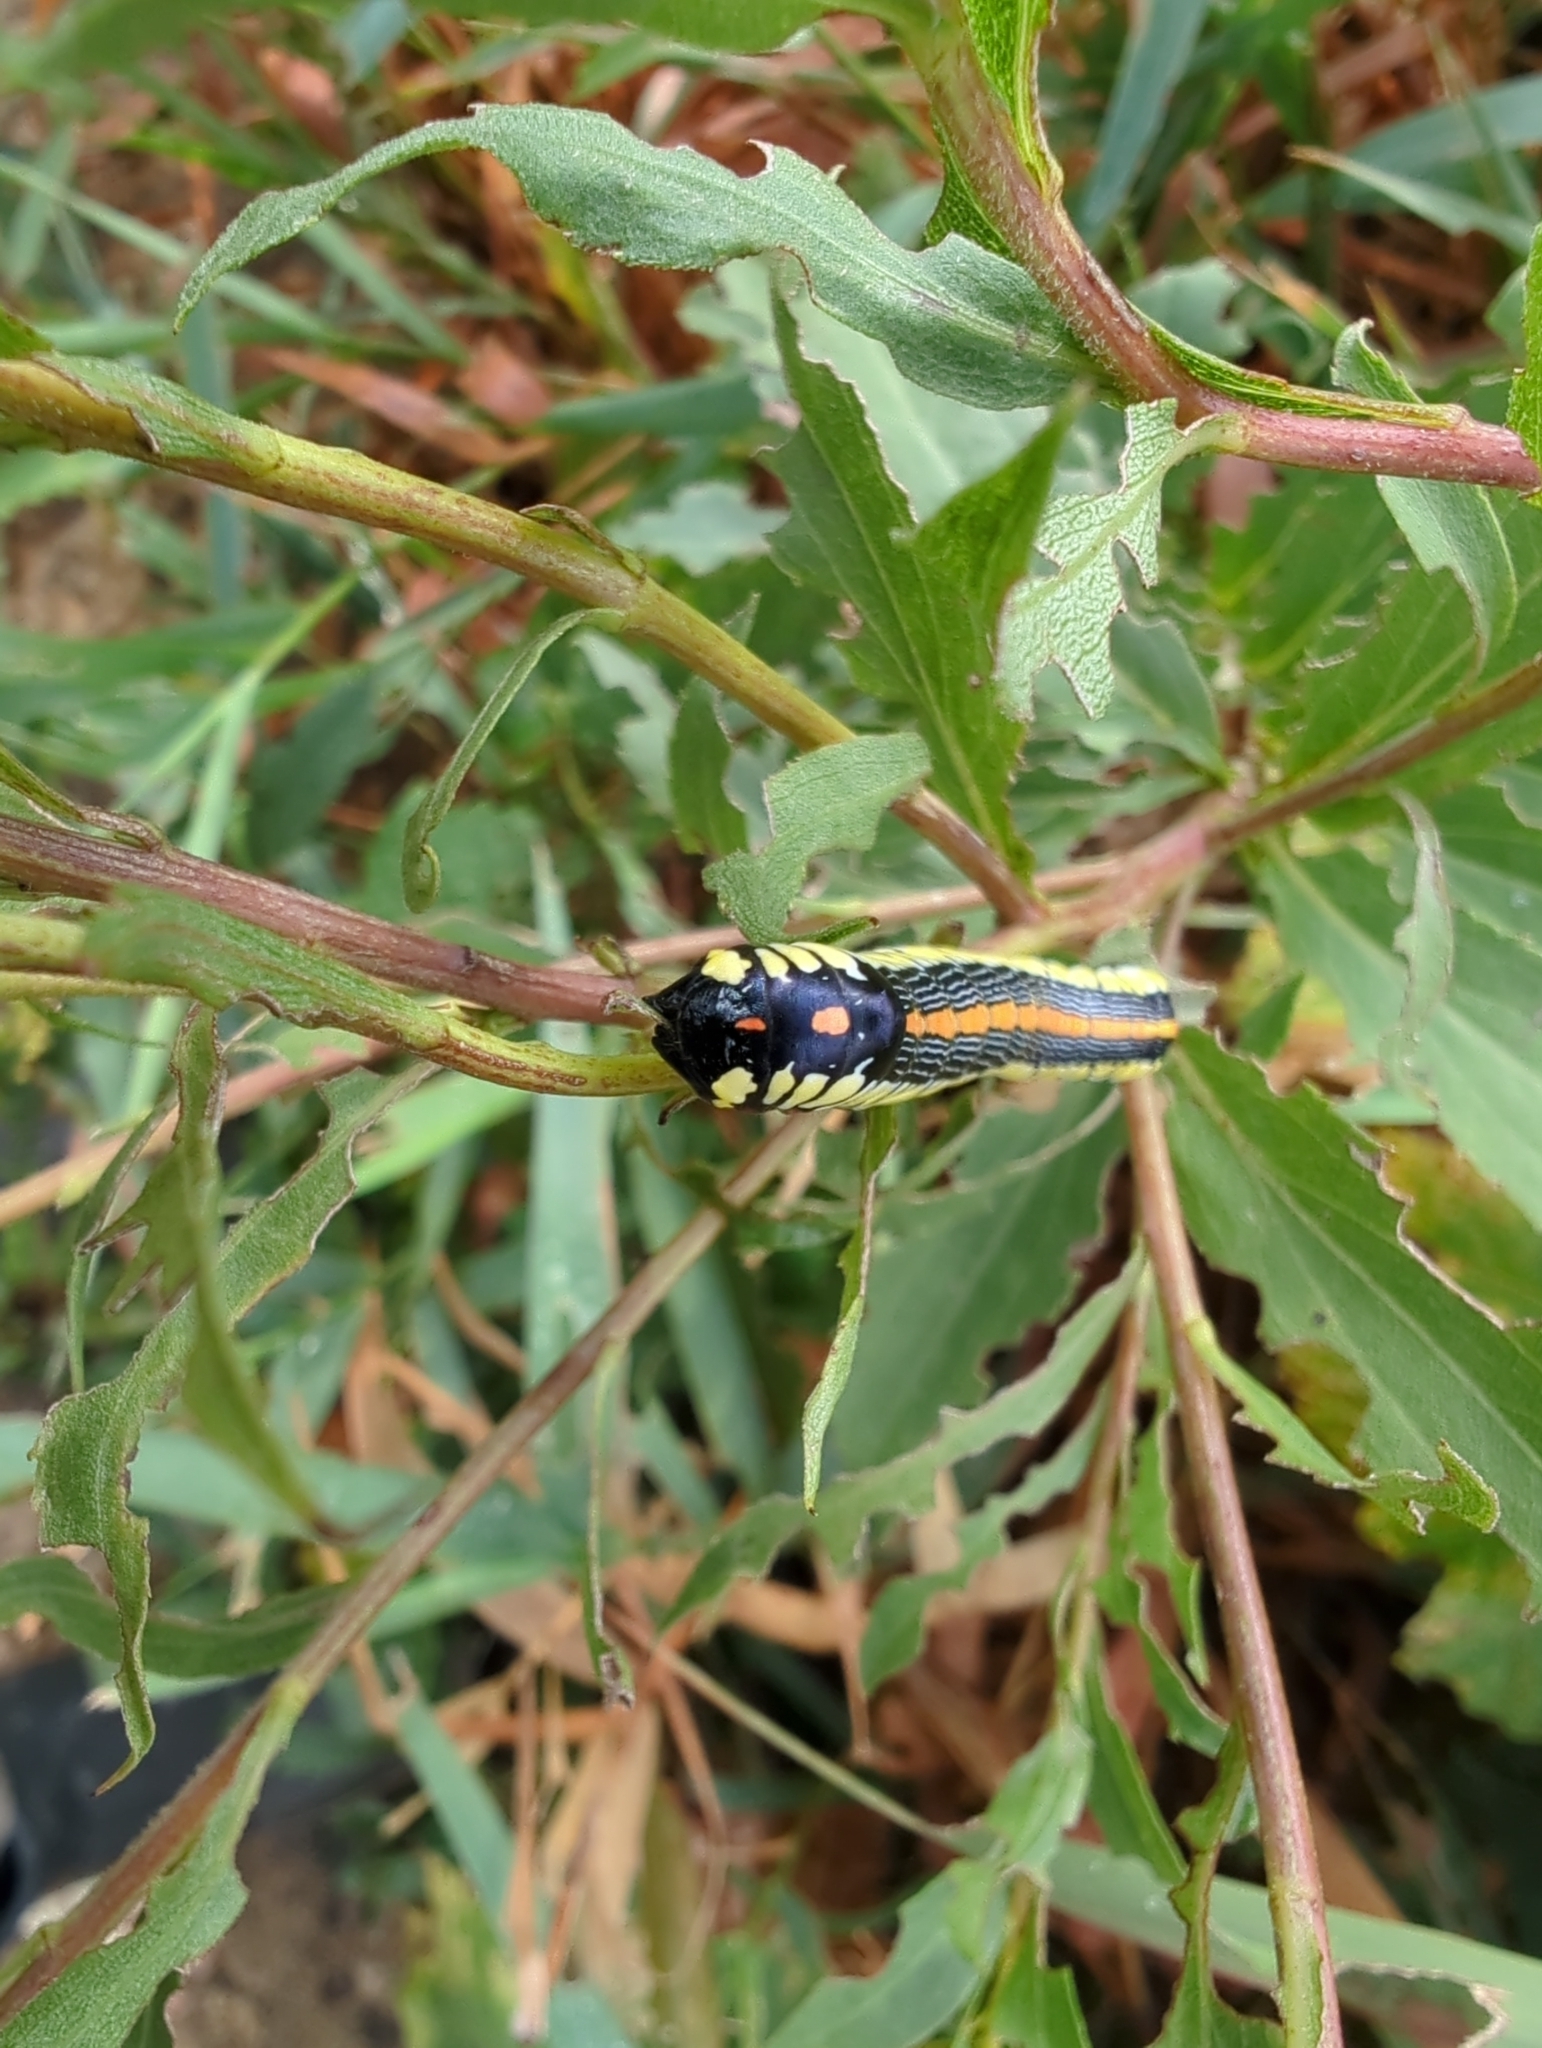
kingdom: Animalia
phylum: Arthropoda
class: Insecta
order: Lepidoptera
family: Noctuidae
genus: Cucullia
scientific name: Cucullia convexipennis
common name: Brown-hooded owlet
